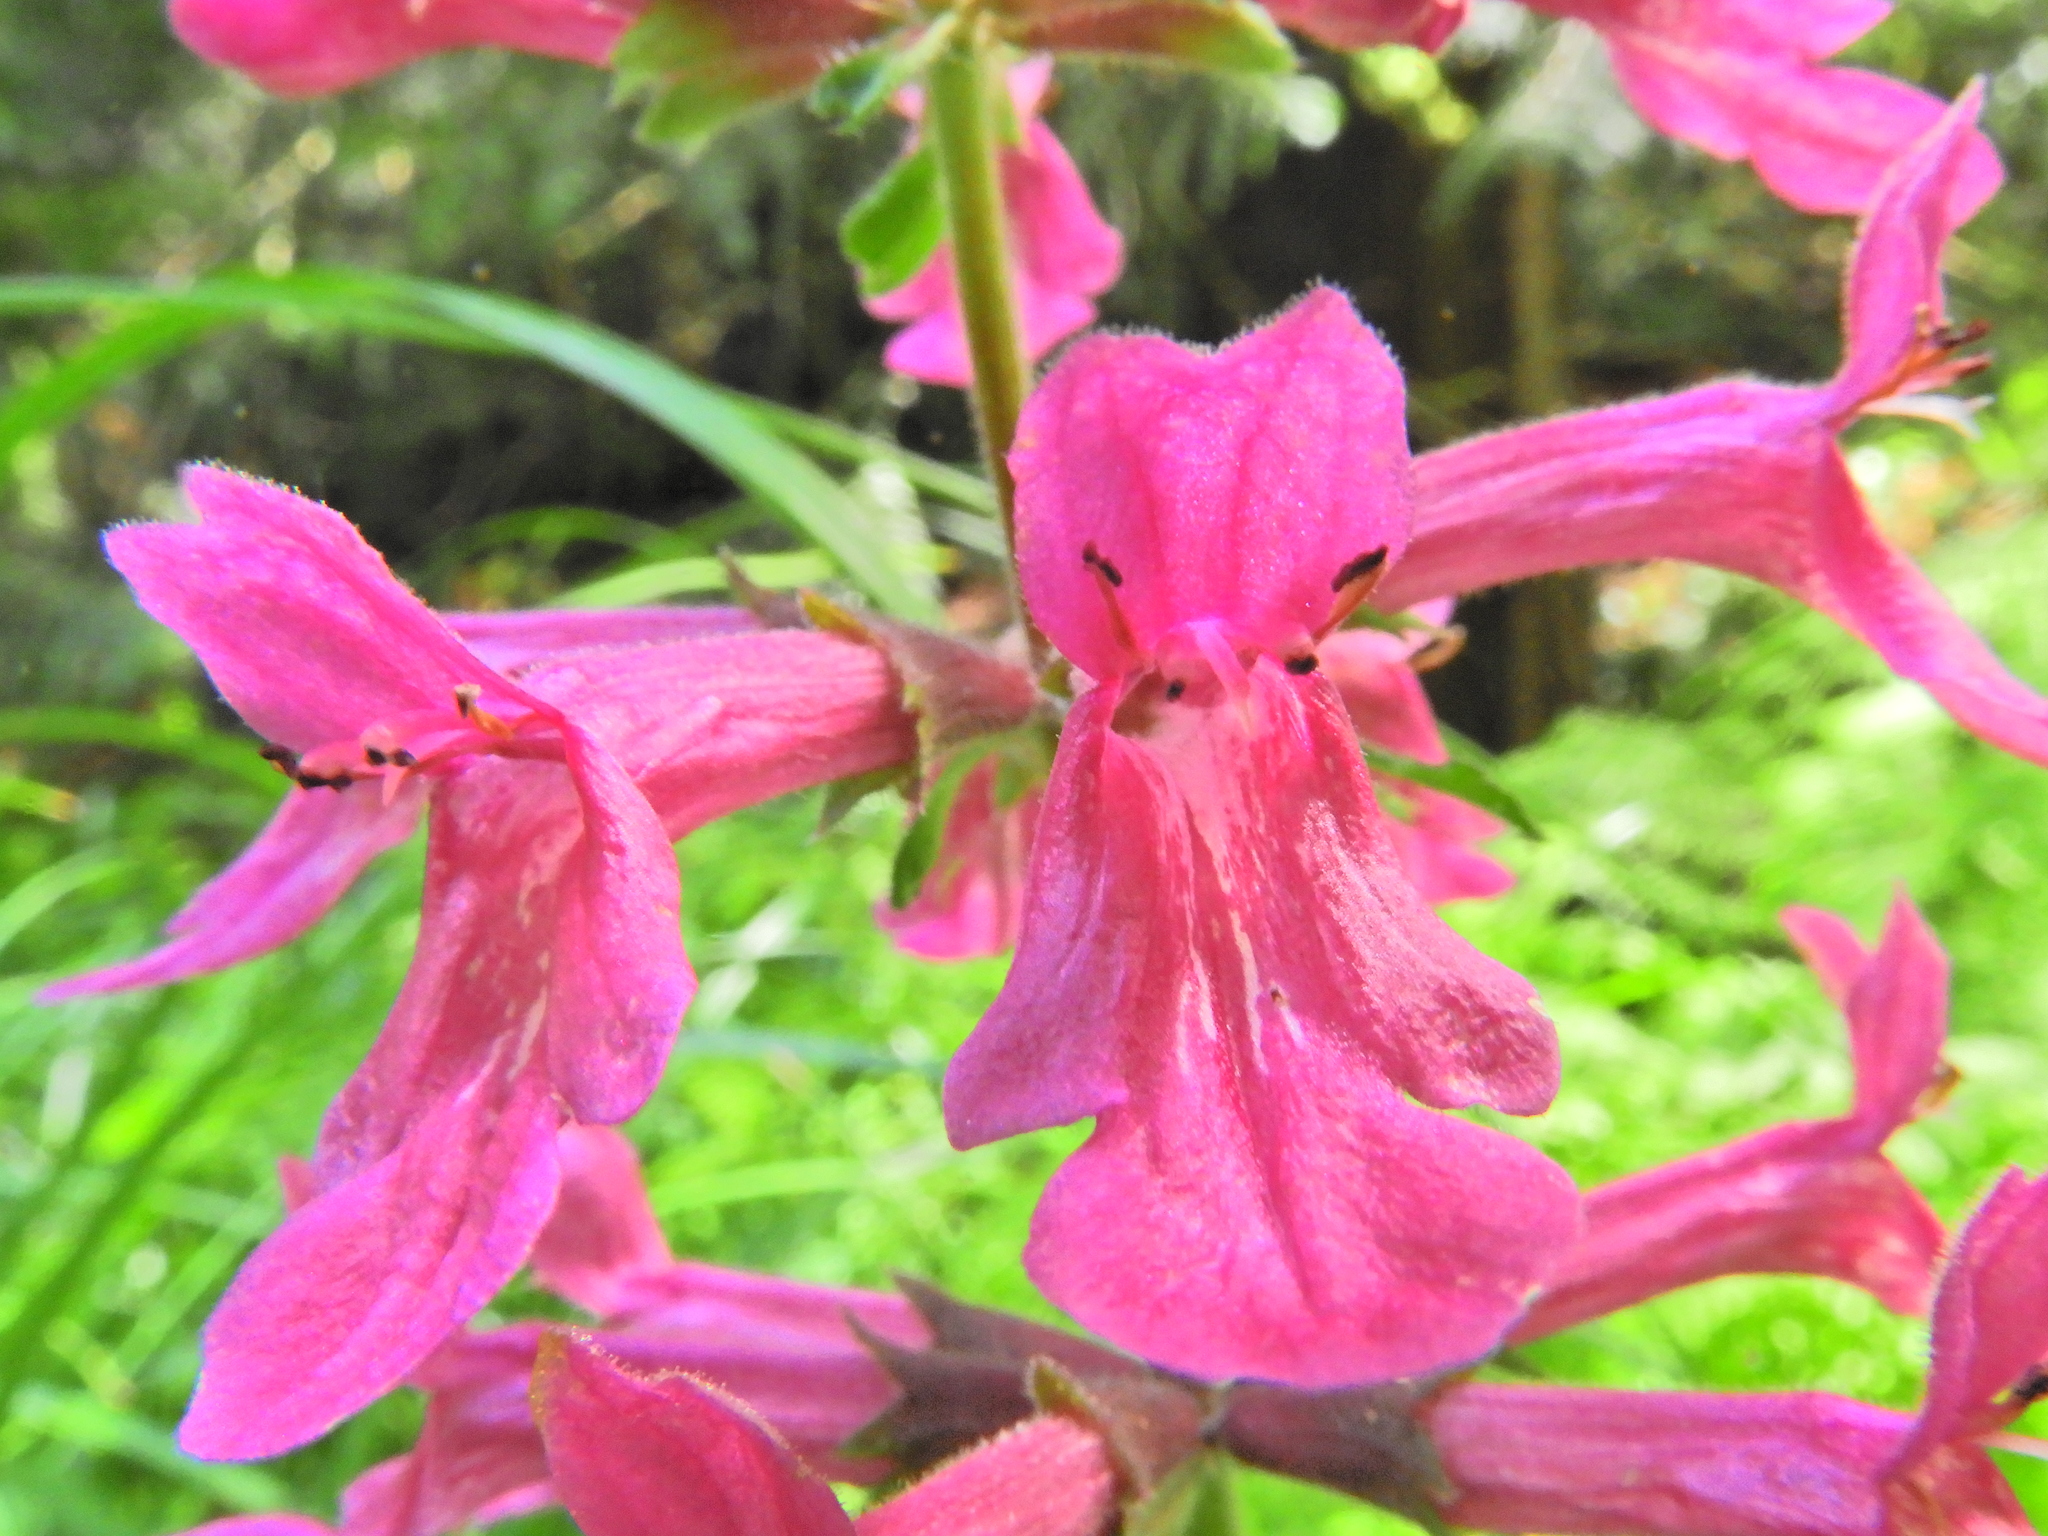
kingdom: Plantae
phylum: Tracheophyta
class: Magnoliopsida
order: Lamiales
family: Lamiaceae
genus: Stachys
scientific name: Stachys chamissonis
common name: Coastal hedge-nettle
